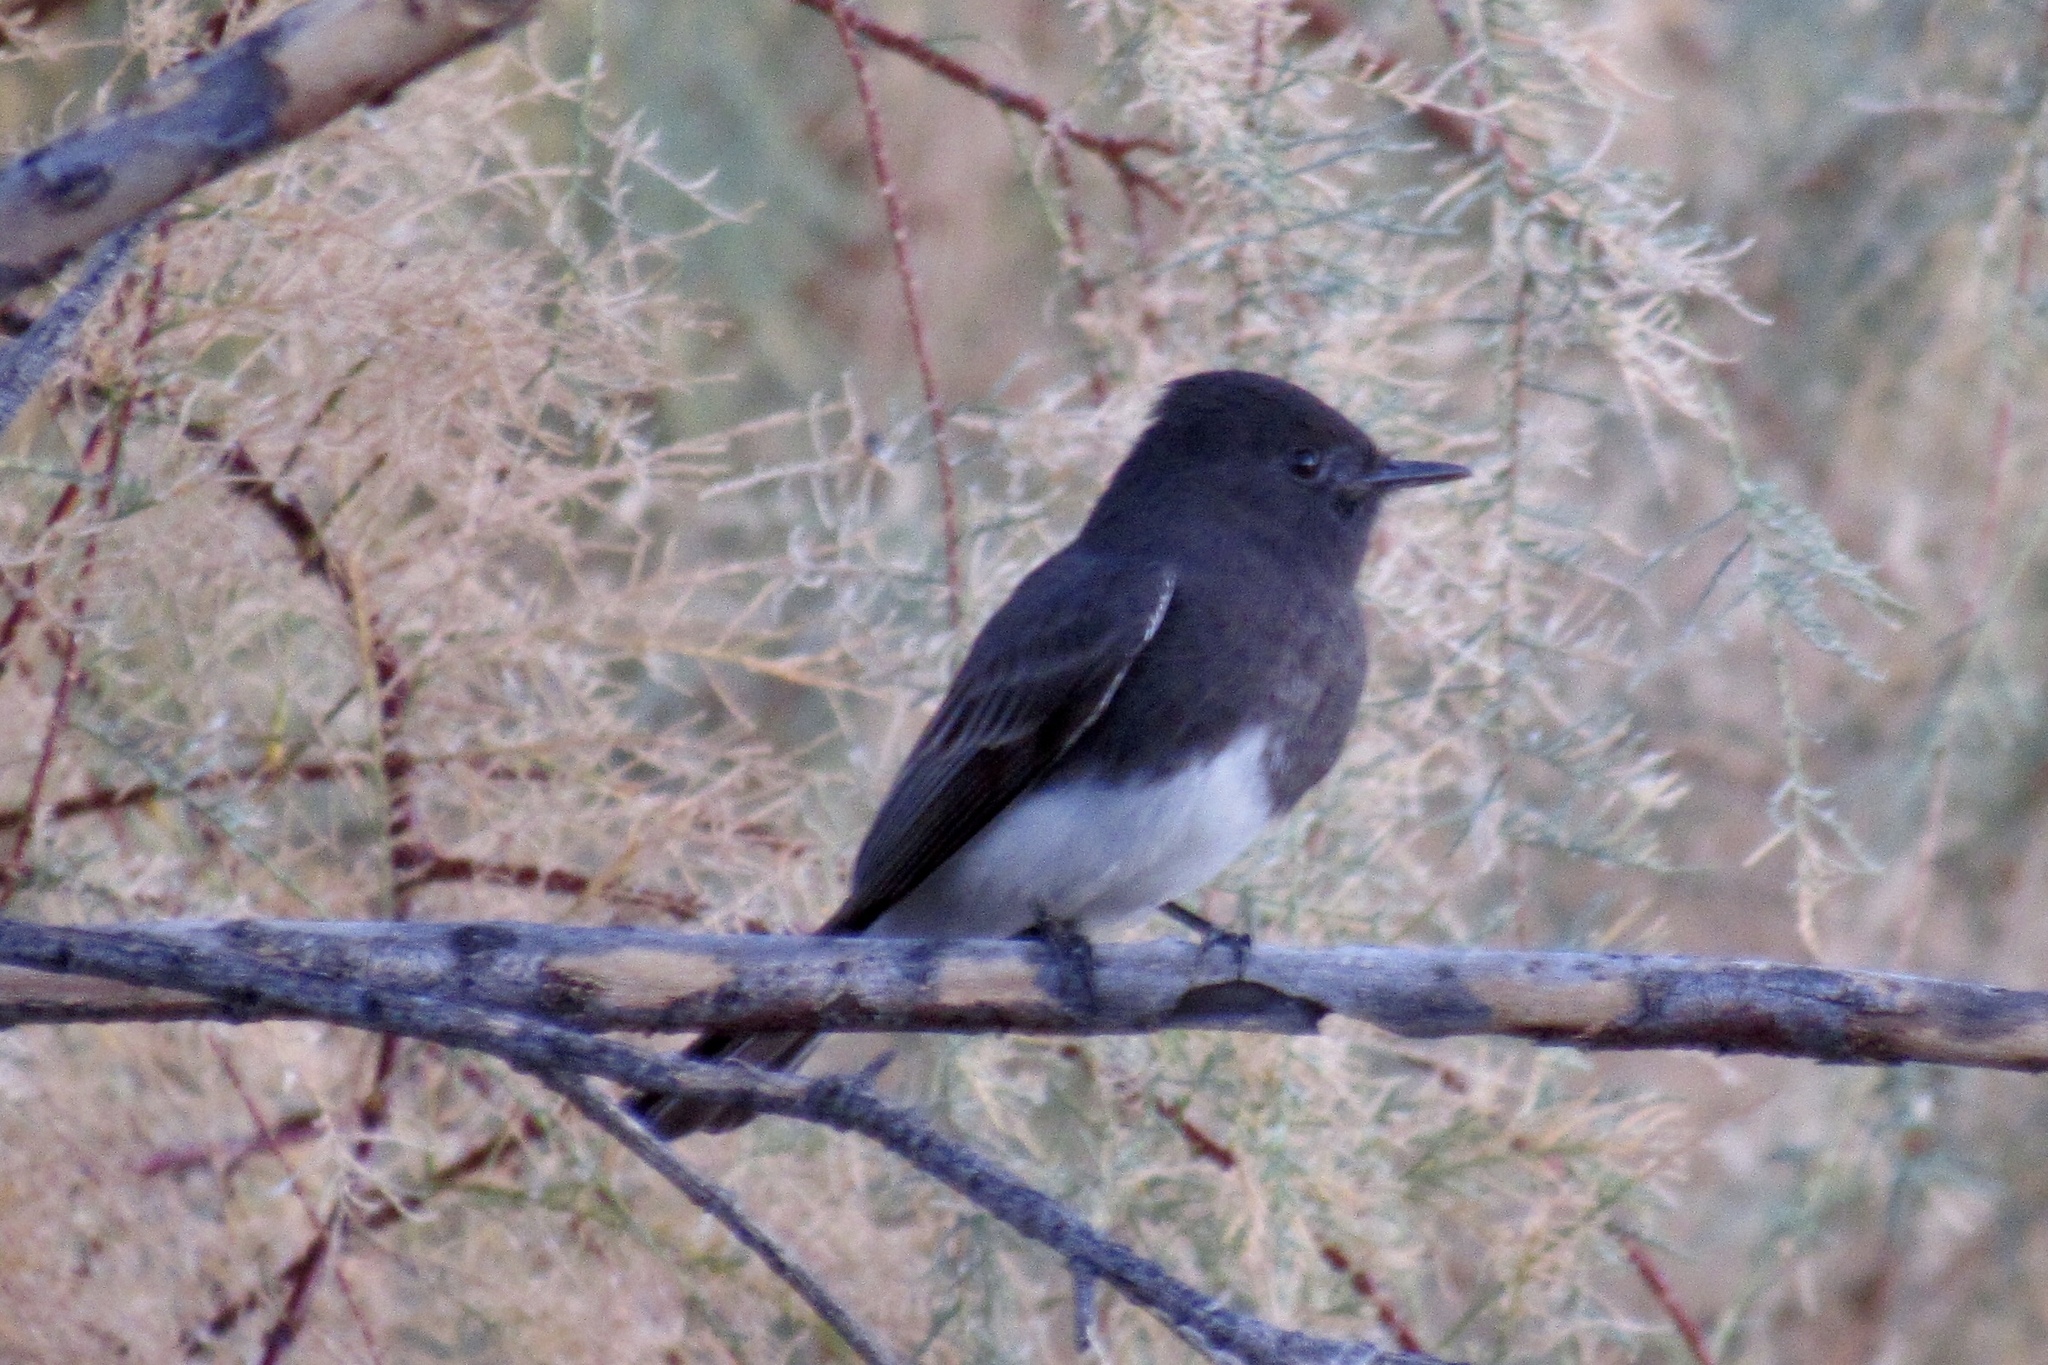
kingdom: Animalia
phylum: Chordata
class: Aves
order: Passeriformes
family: Tyrannidae
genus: Sayornis
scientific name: Sayornis nigricans
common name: Black phoebe
